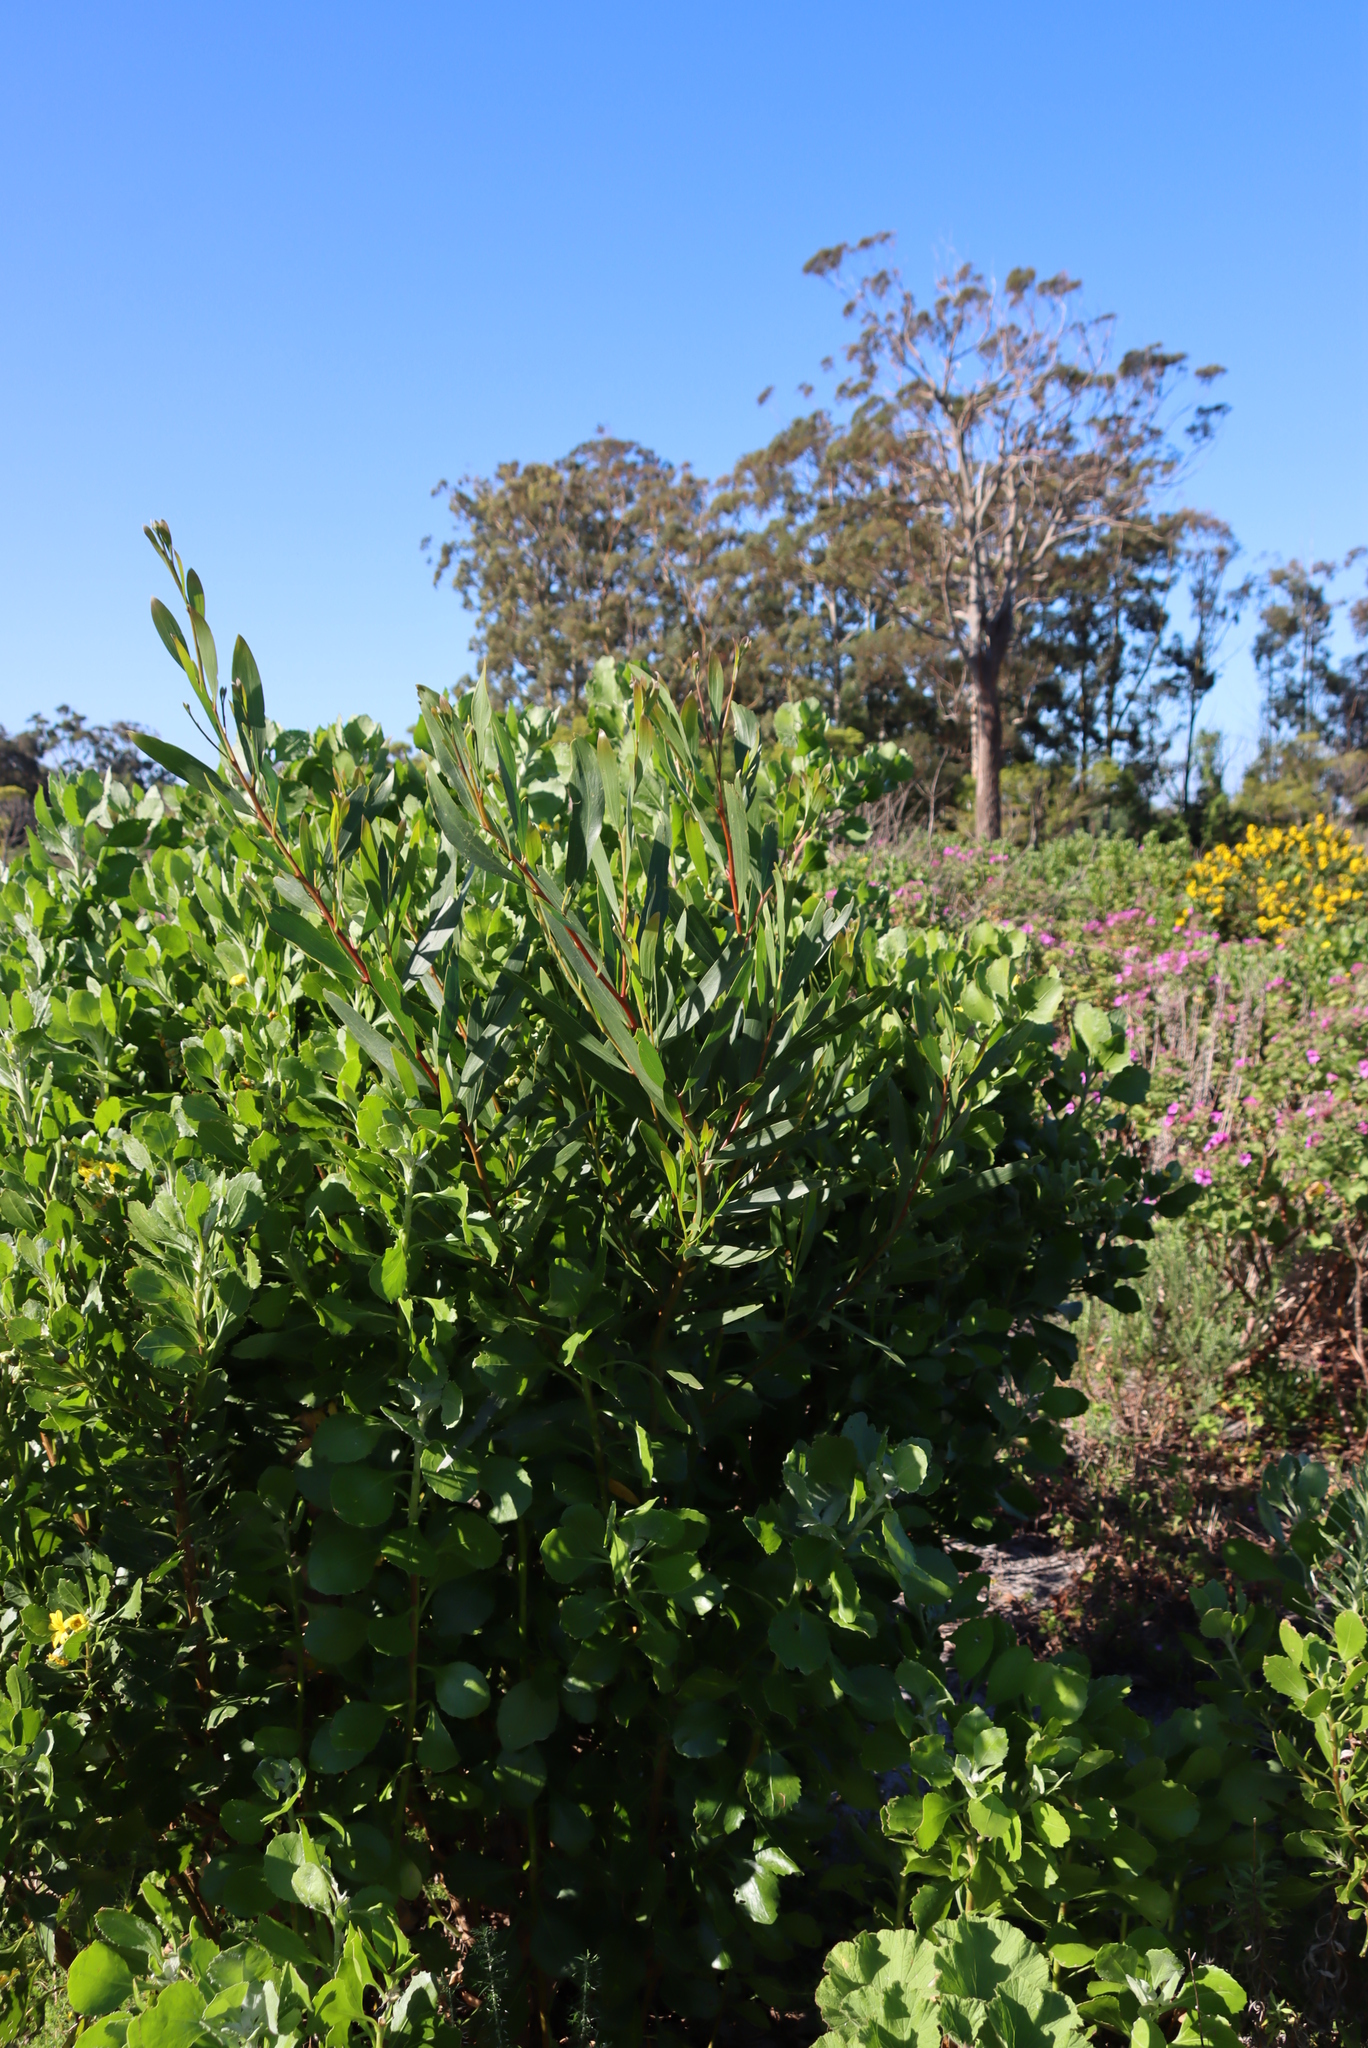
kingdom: Plantae
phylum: Tracheophyta
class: Magnoliopsida
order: Fabales
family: Fabaceae
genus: Acacia
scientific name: Acacia longifolia
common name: Sydney golden wattle
